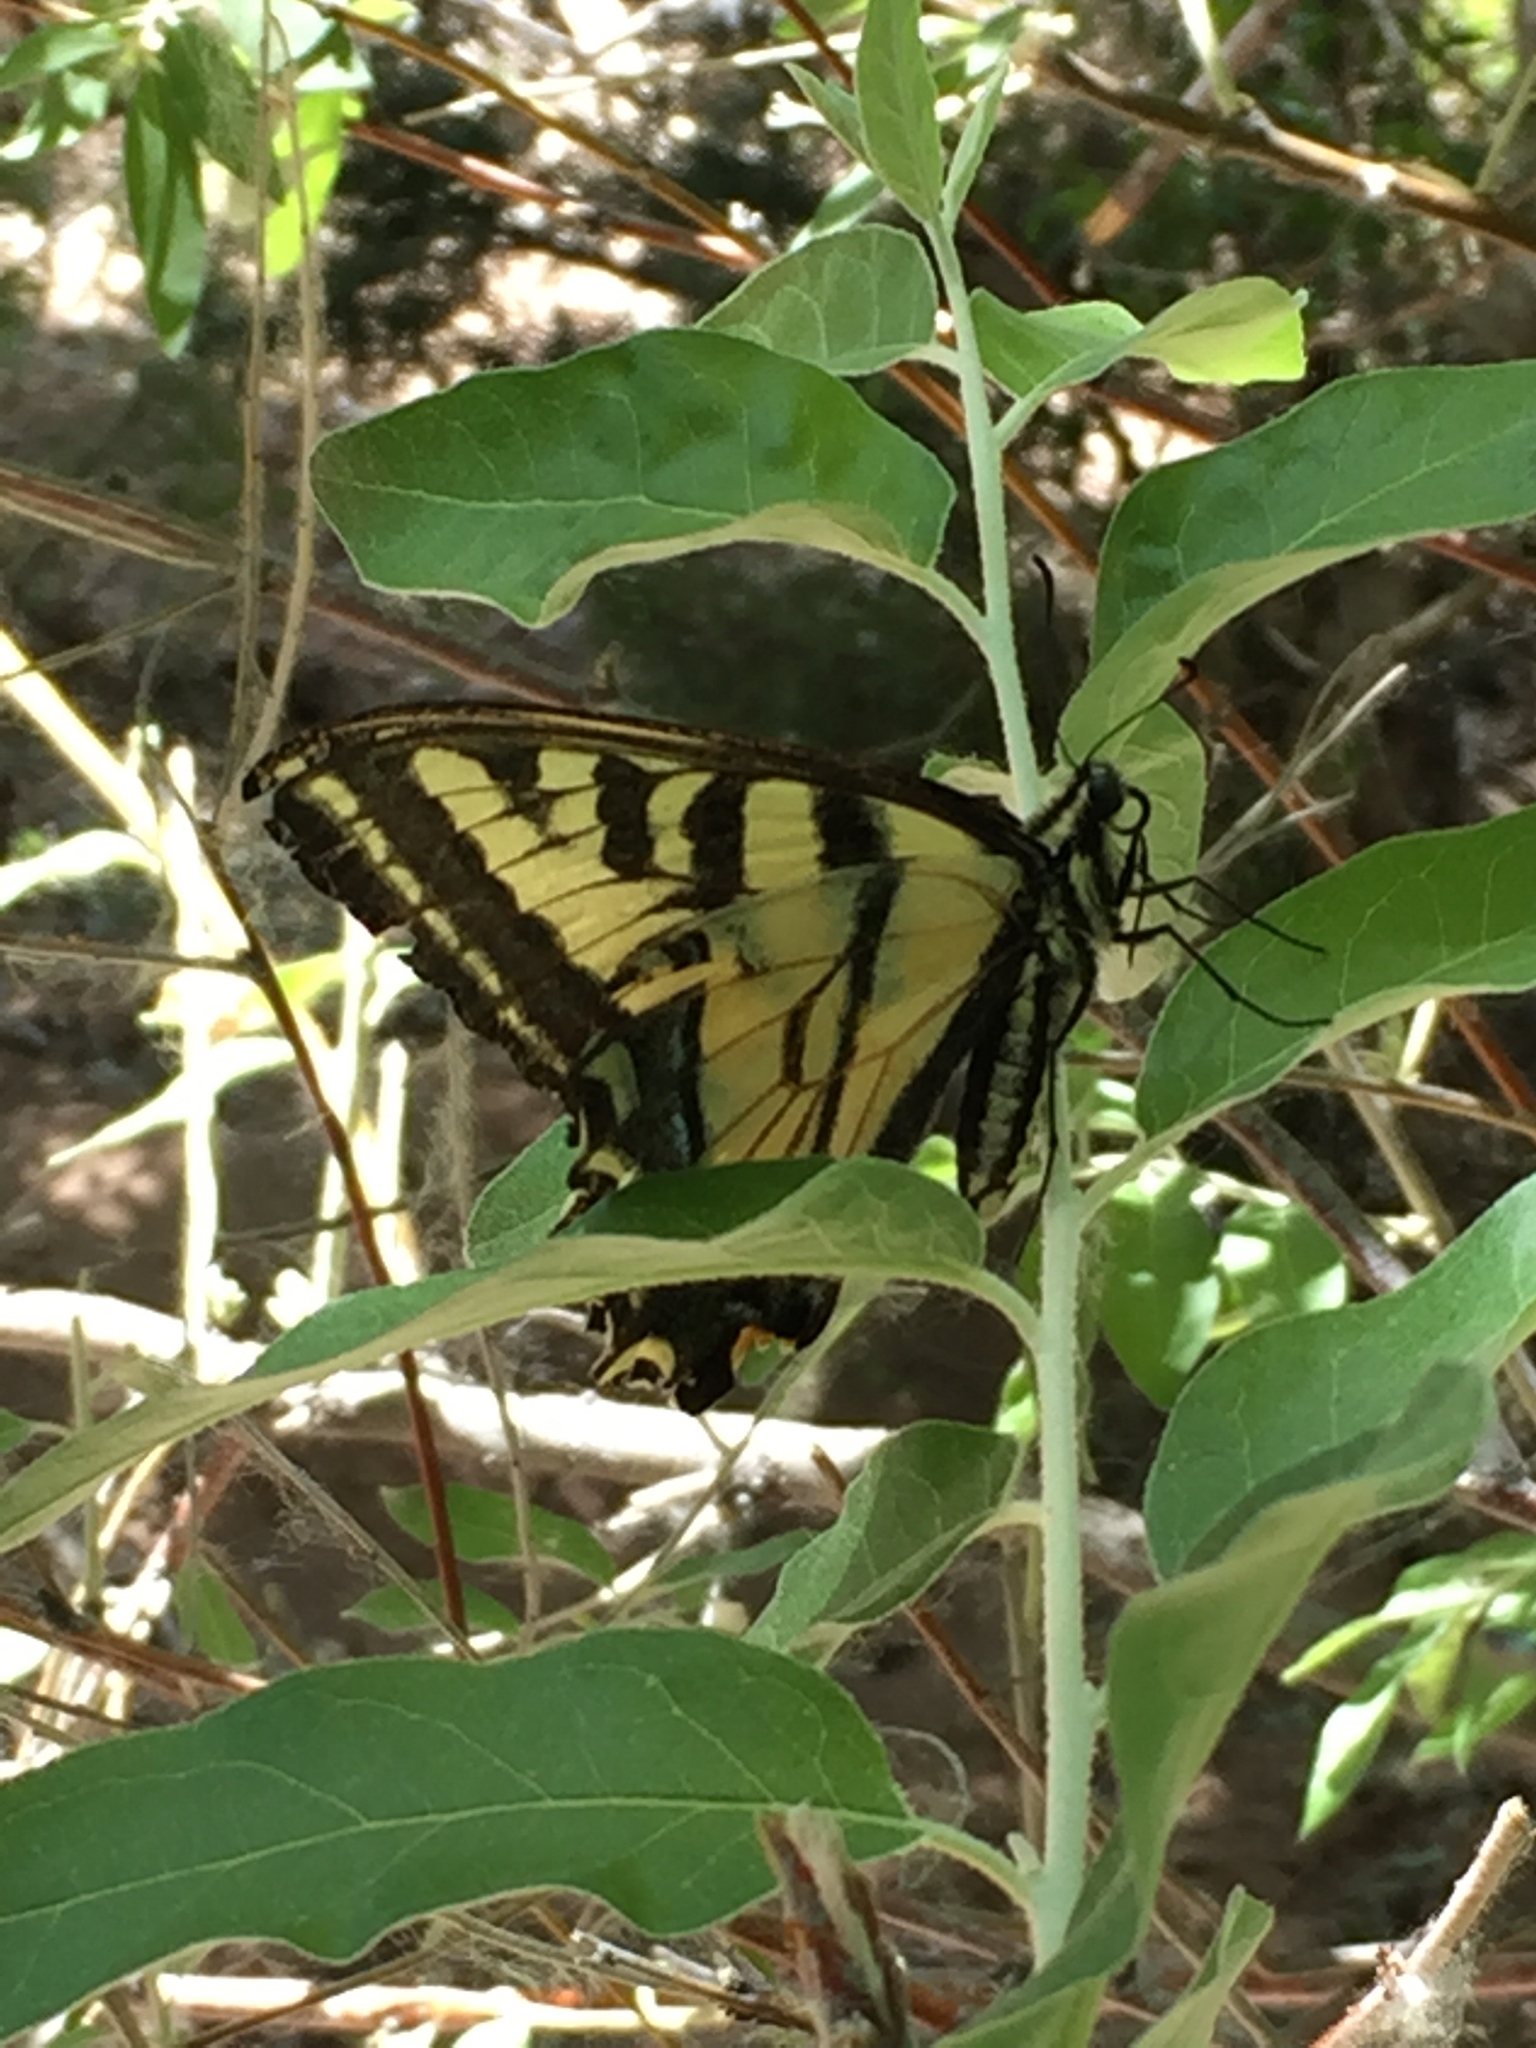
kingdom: Animalia
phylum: Arthropoda
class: Insecta
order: Lepidoptera
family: Papilionidae
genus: Papilio
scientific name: Papilio rutulus
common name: Western tiger swallowtail
